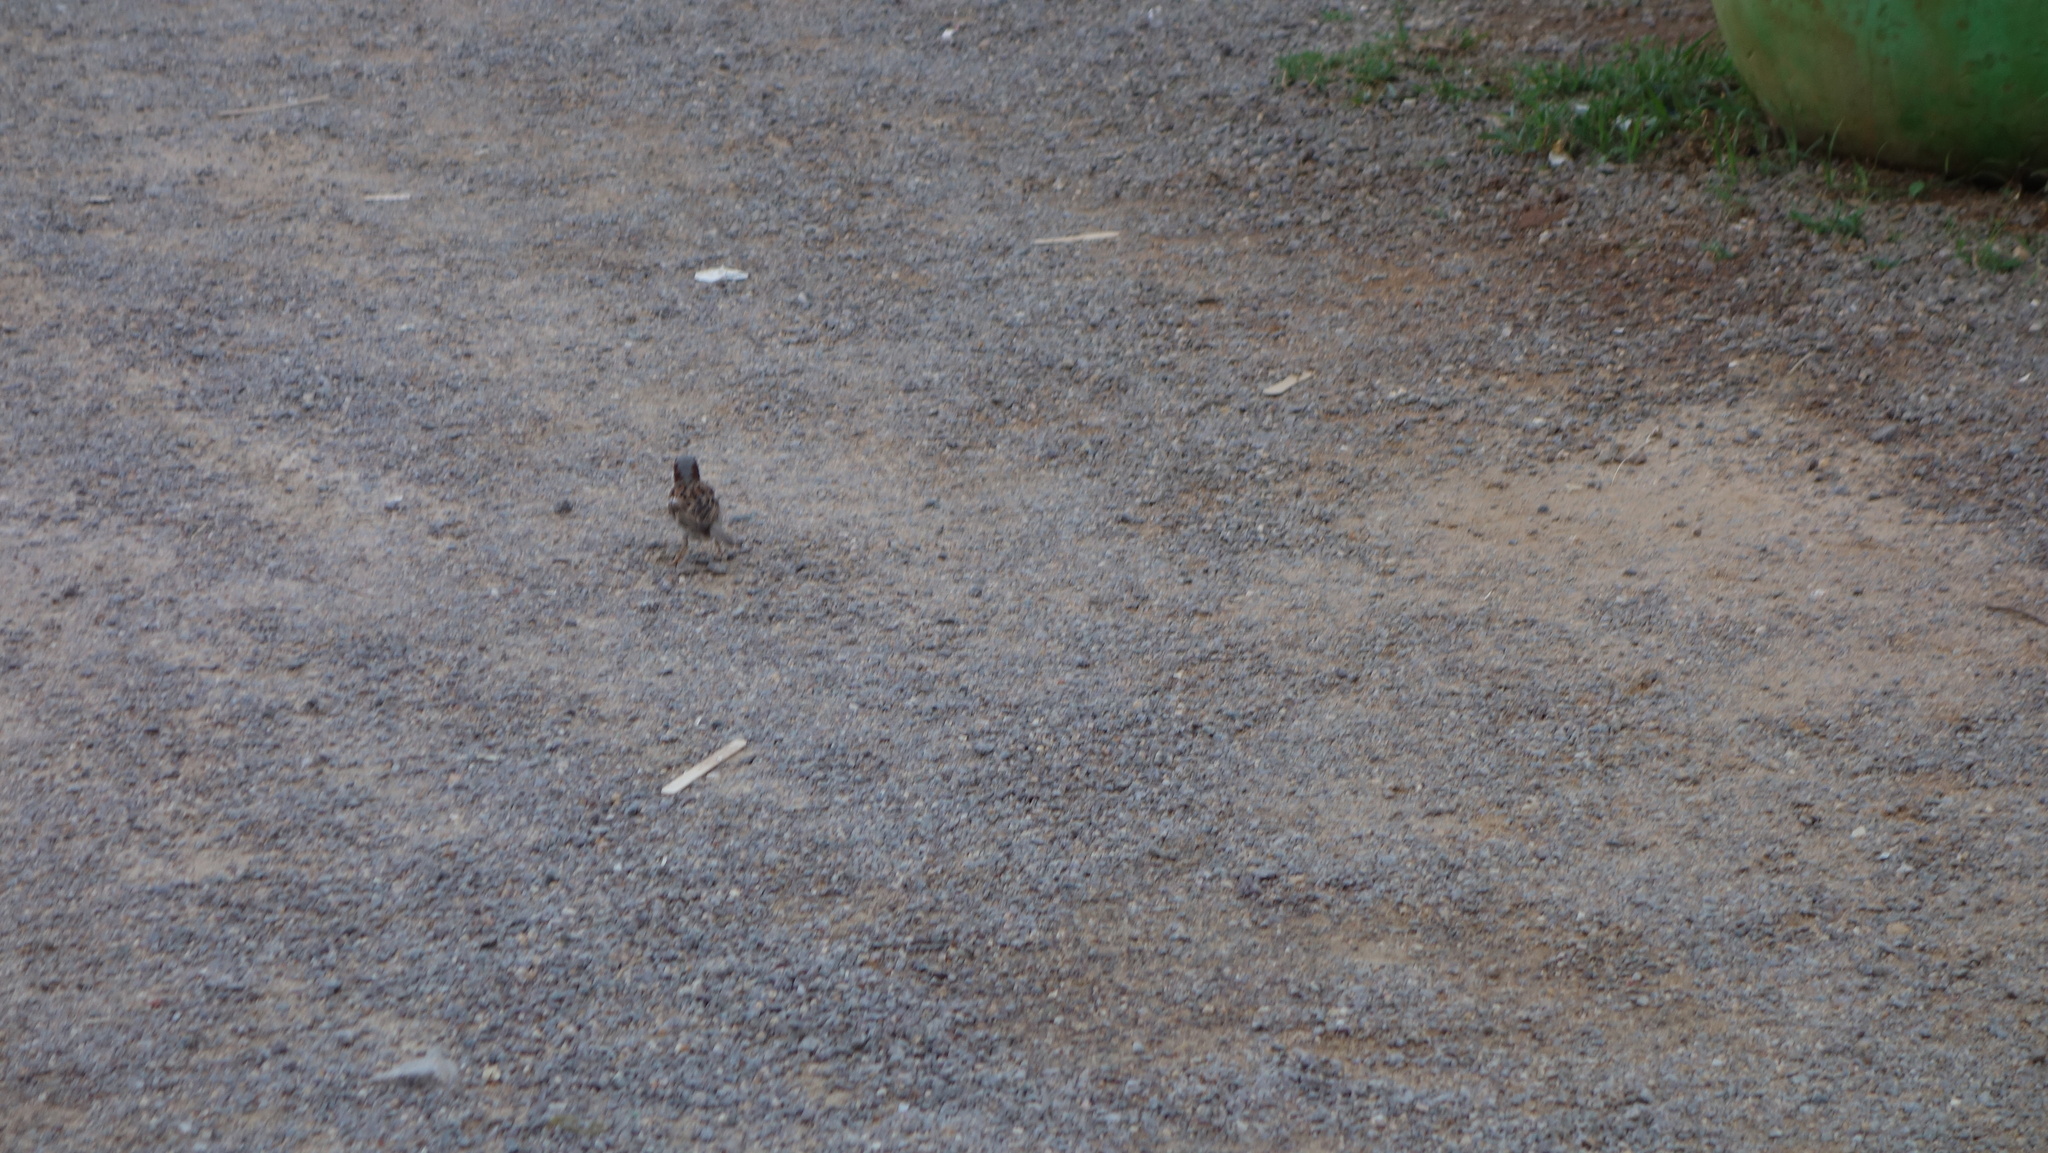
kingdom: Animalia
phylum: Chordata
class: Aves
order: Passeriformes
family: Passeridae
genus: Passer
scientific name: Passer domesticus
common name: House sparrow
